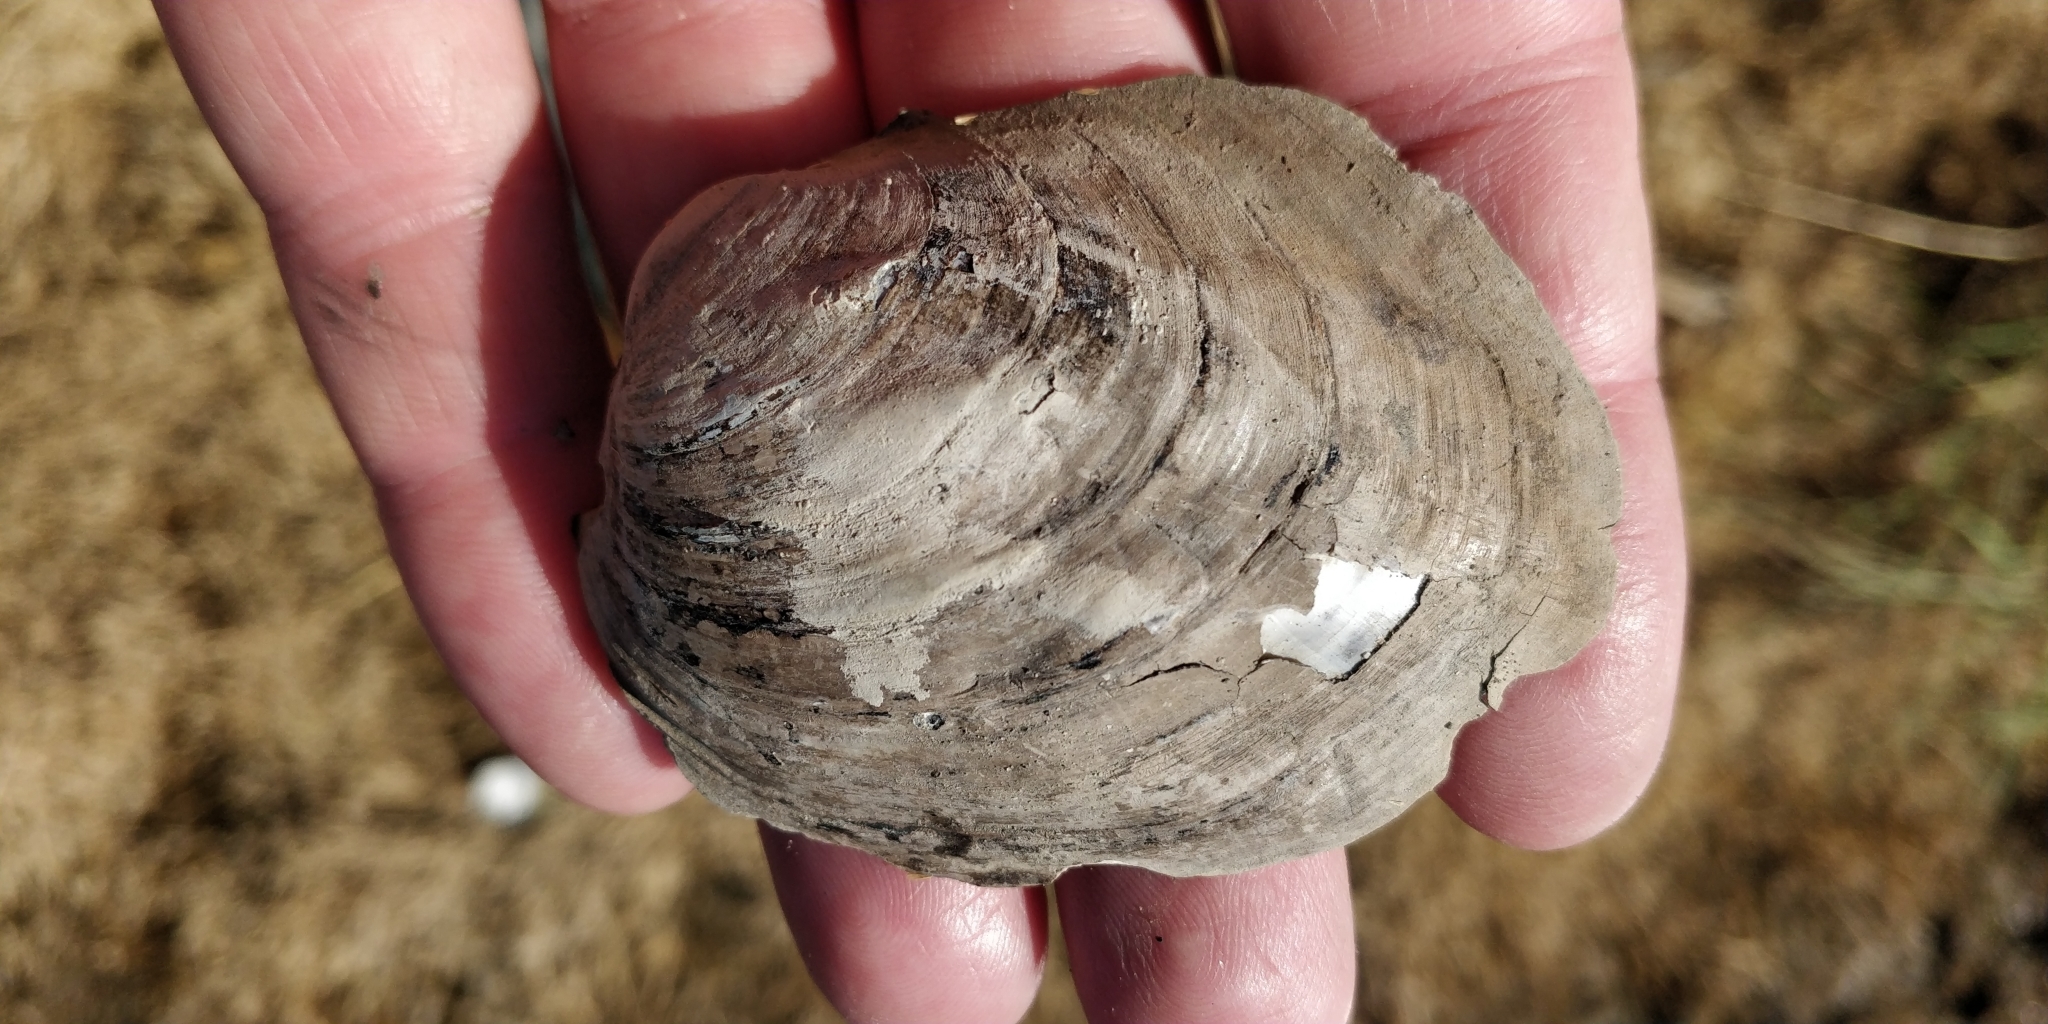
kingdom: Animalia
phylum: Mollusca
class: Bivalvia
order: Unionida
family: Unionidae
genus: Amblema
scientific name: Amblema plicata
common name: Threeridge
